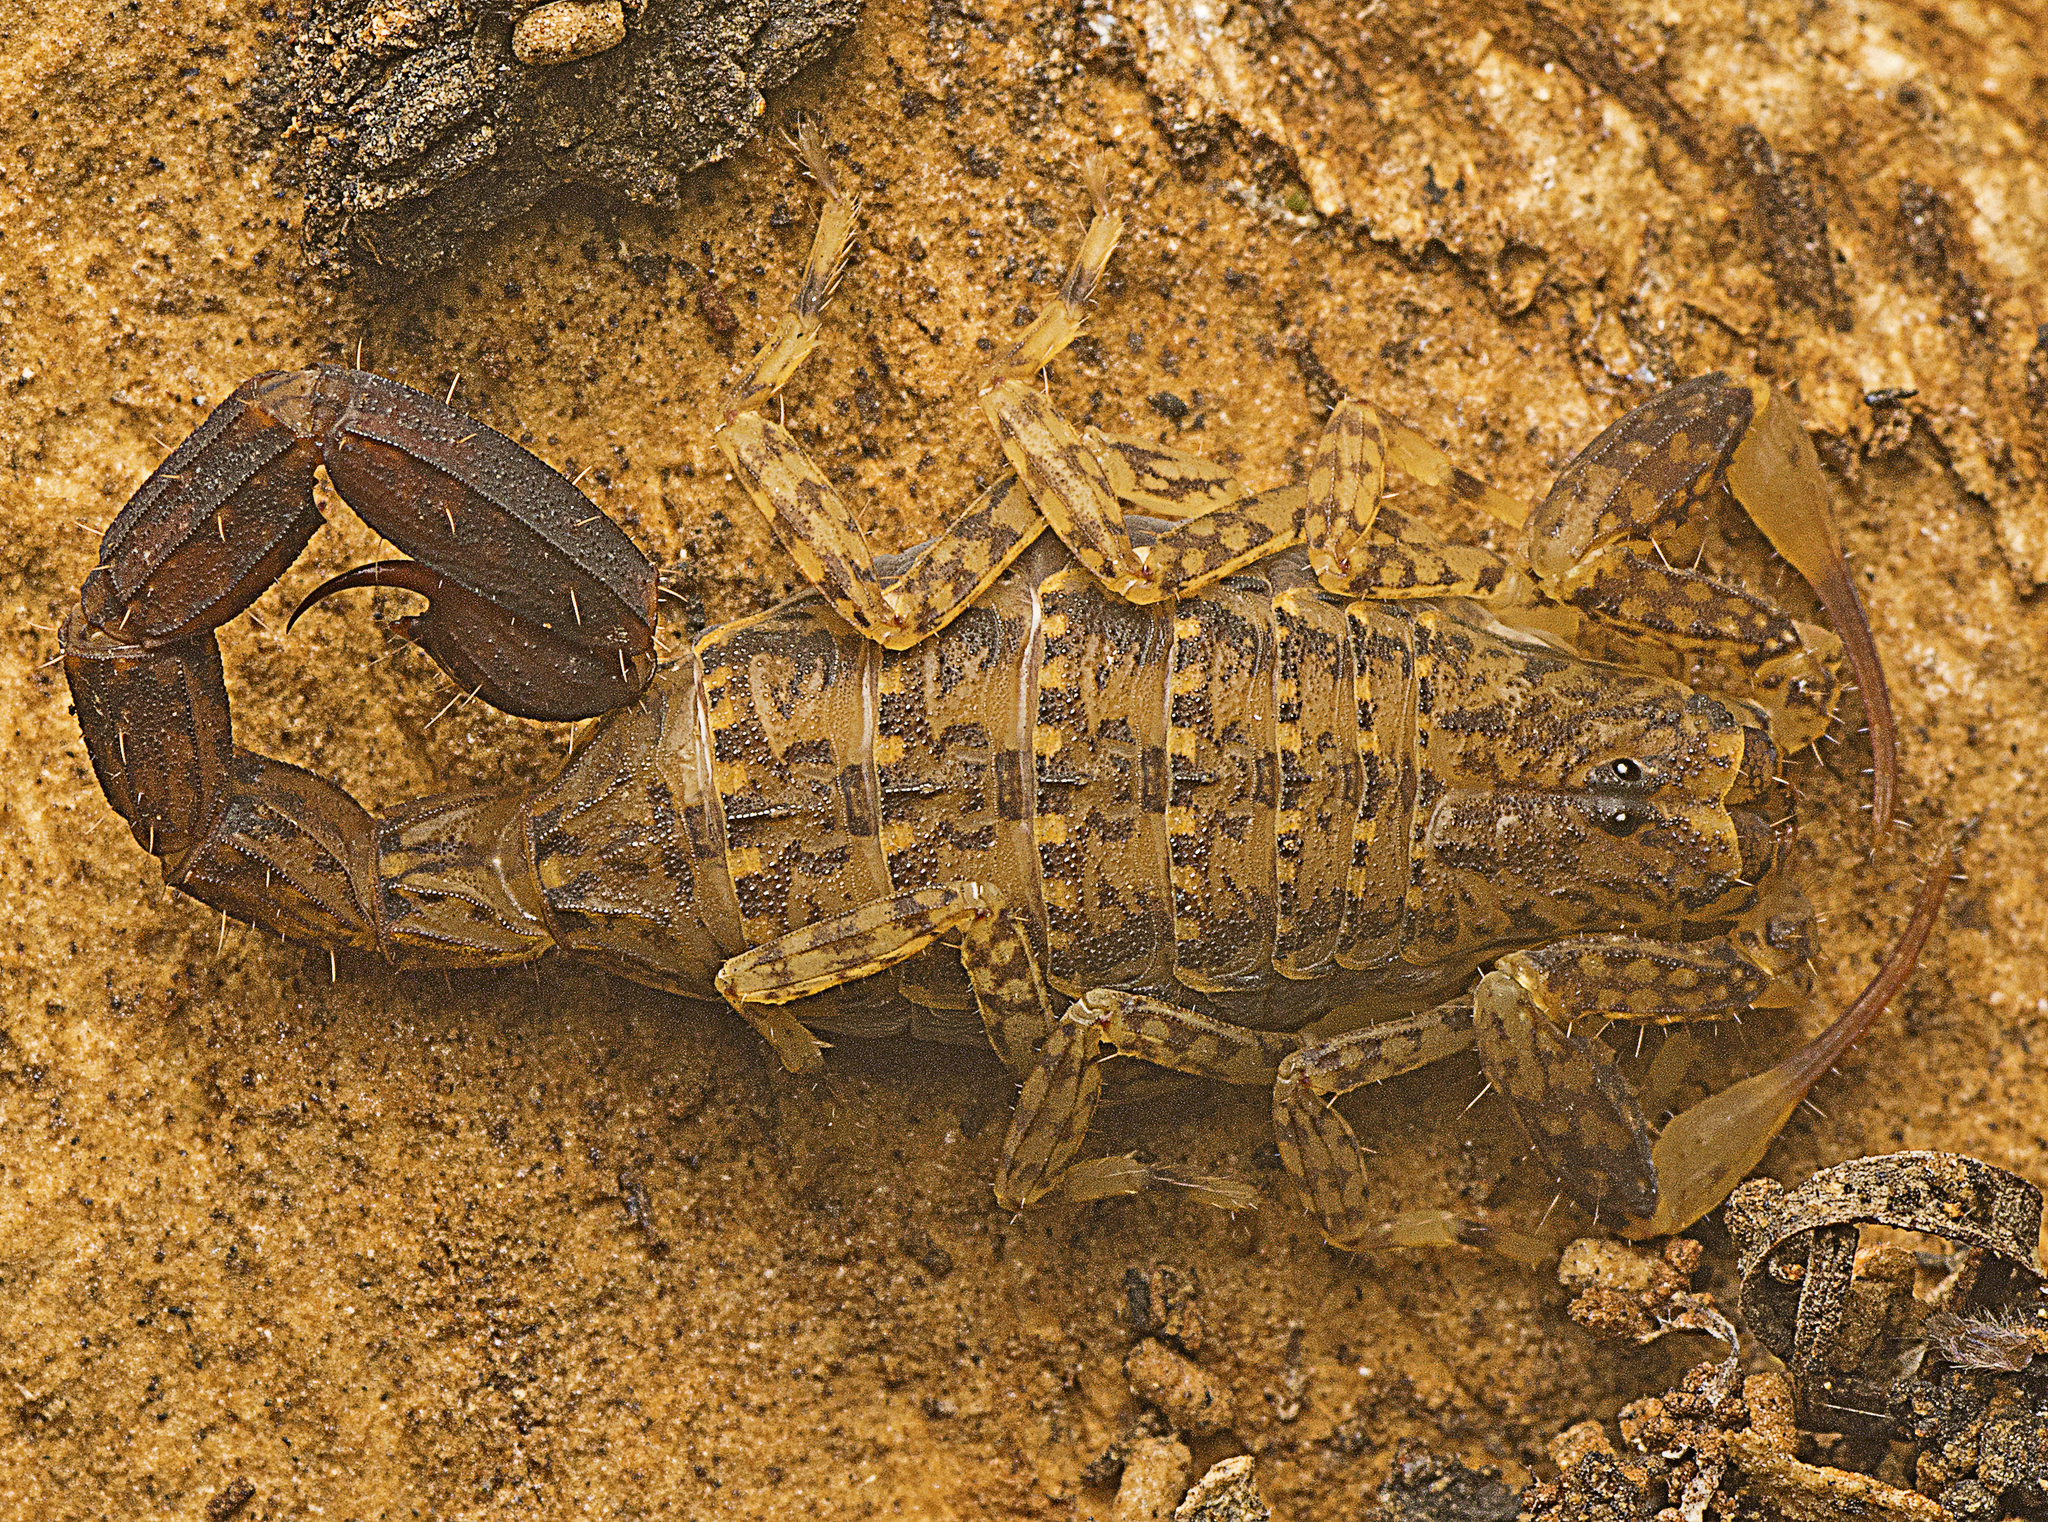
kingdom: Animalia
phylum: Arthropoda
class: Arachnida
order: Scorpiones
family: Buthidae
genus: Lychas
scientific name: Lychas variatus
